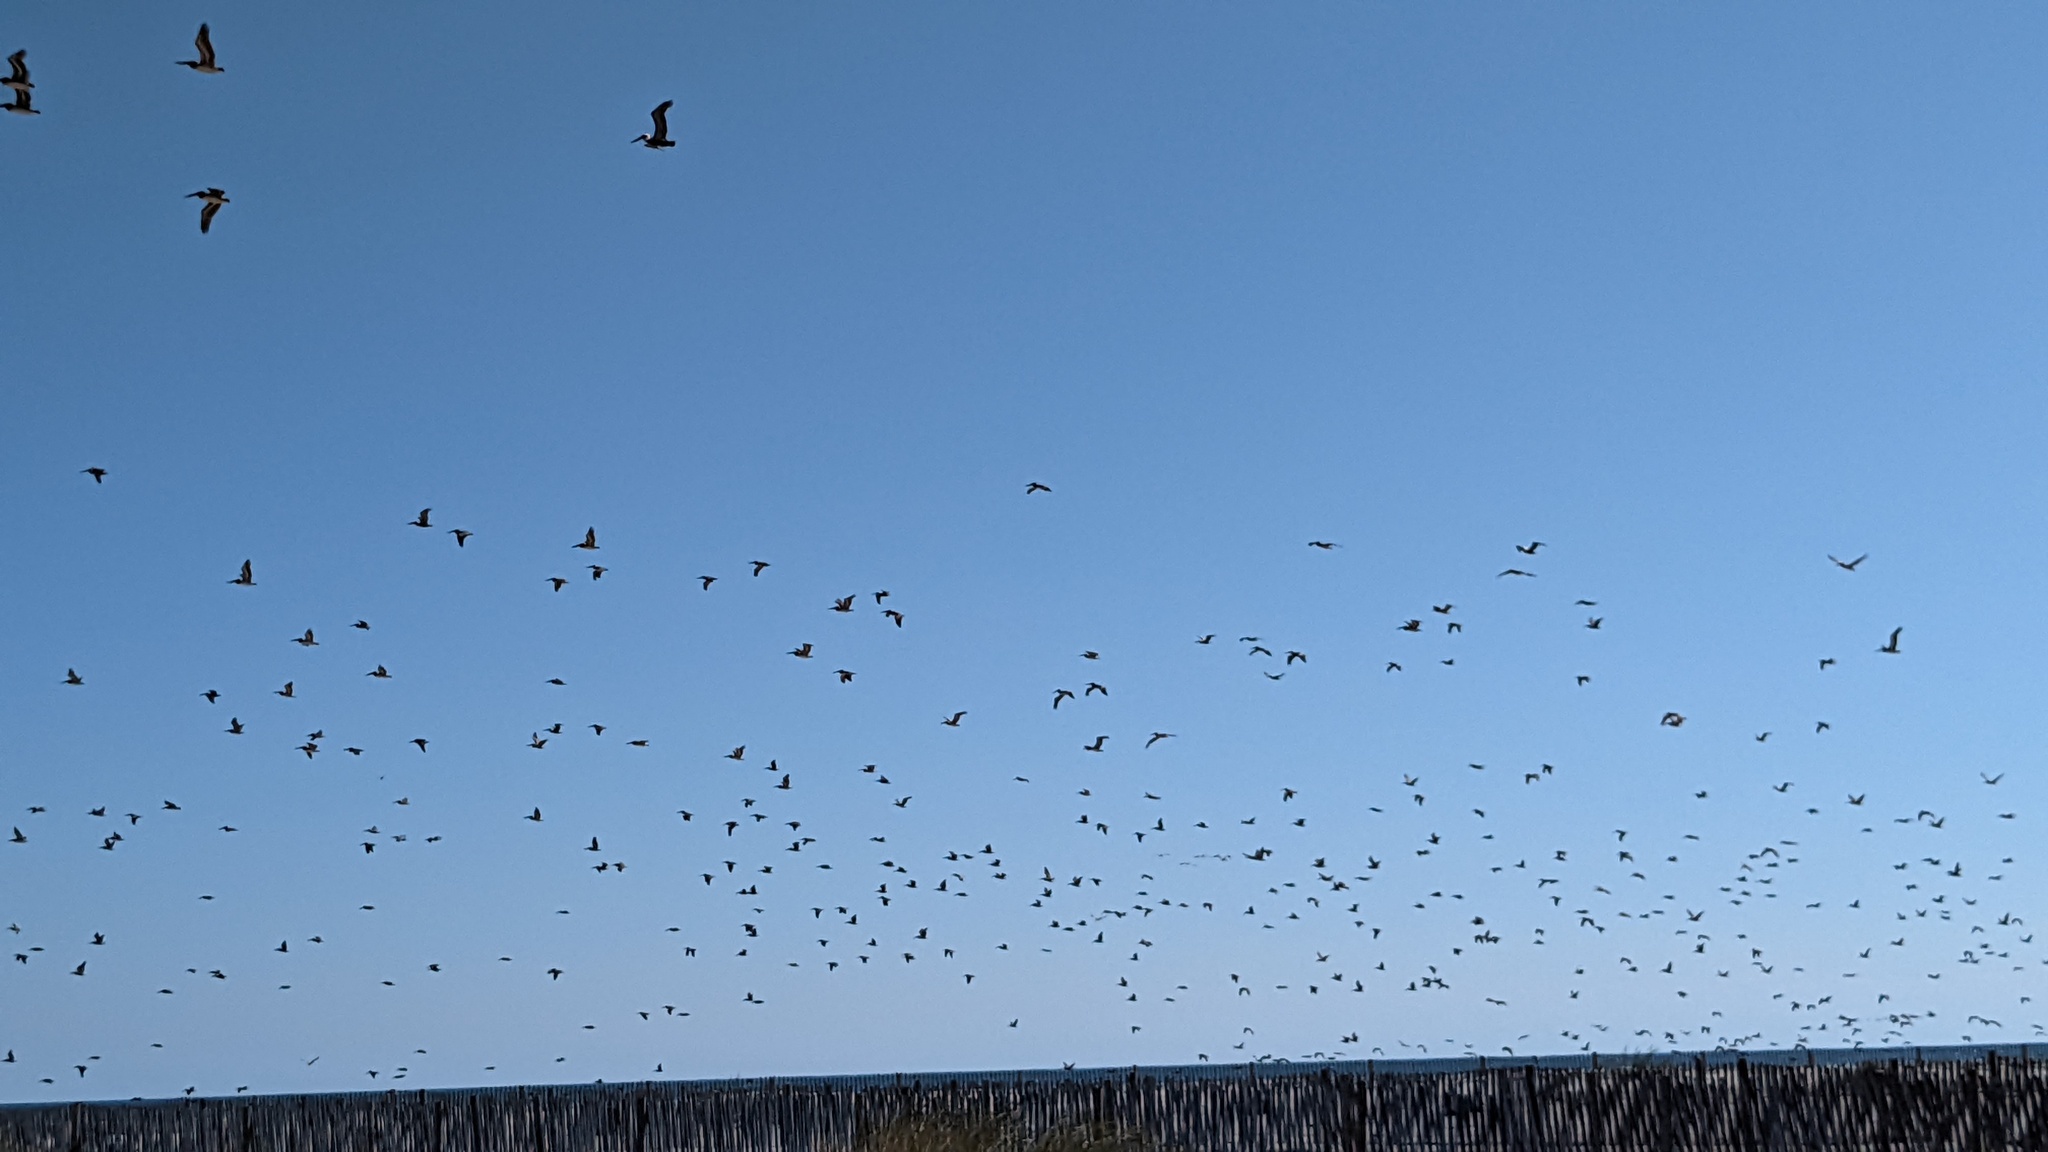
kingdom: Animalia
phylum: Chordata
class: Aves
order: Pelecaniformes
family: Pelecanidae
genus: Pelecanus
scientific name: Pelecanus occidentalis
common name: Brown pelican
